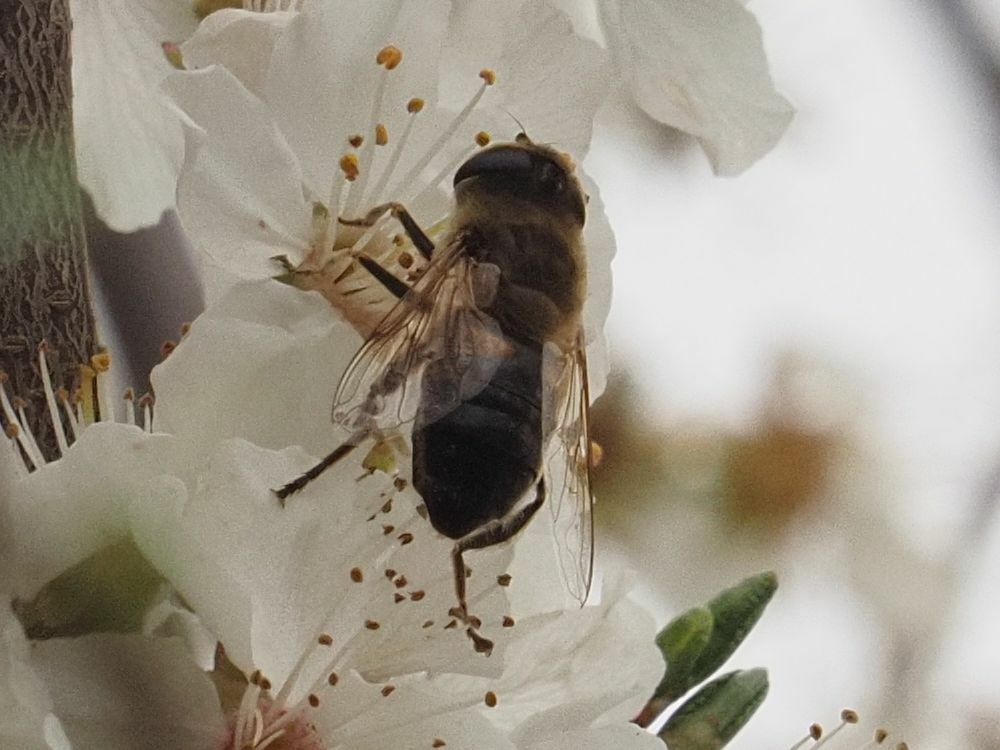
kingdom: Animalia
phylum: Arthropoda
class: Insecta
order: Diptera
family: Syrphidae
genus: Eristalis
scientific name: Eristalis pertinax
